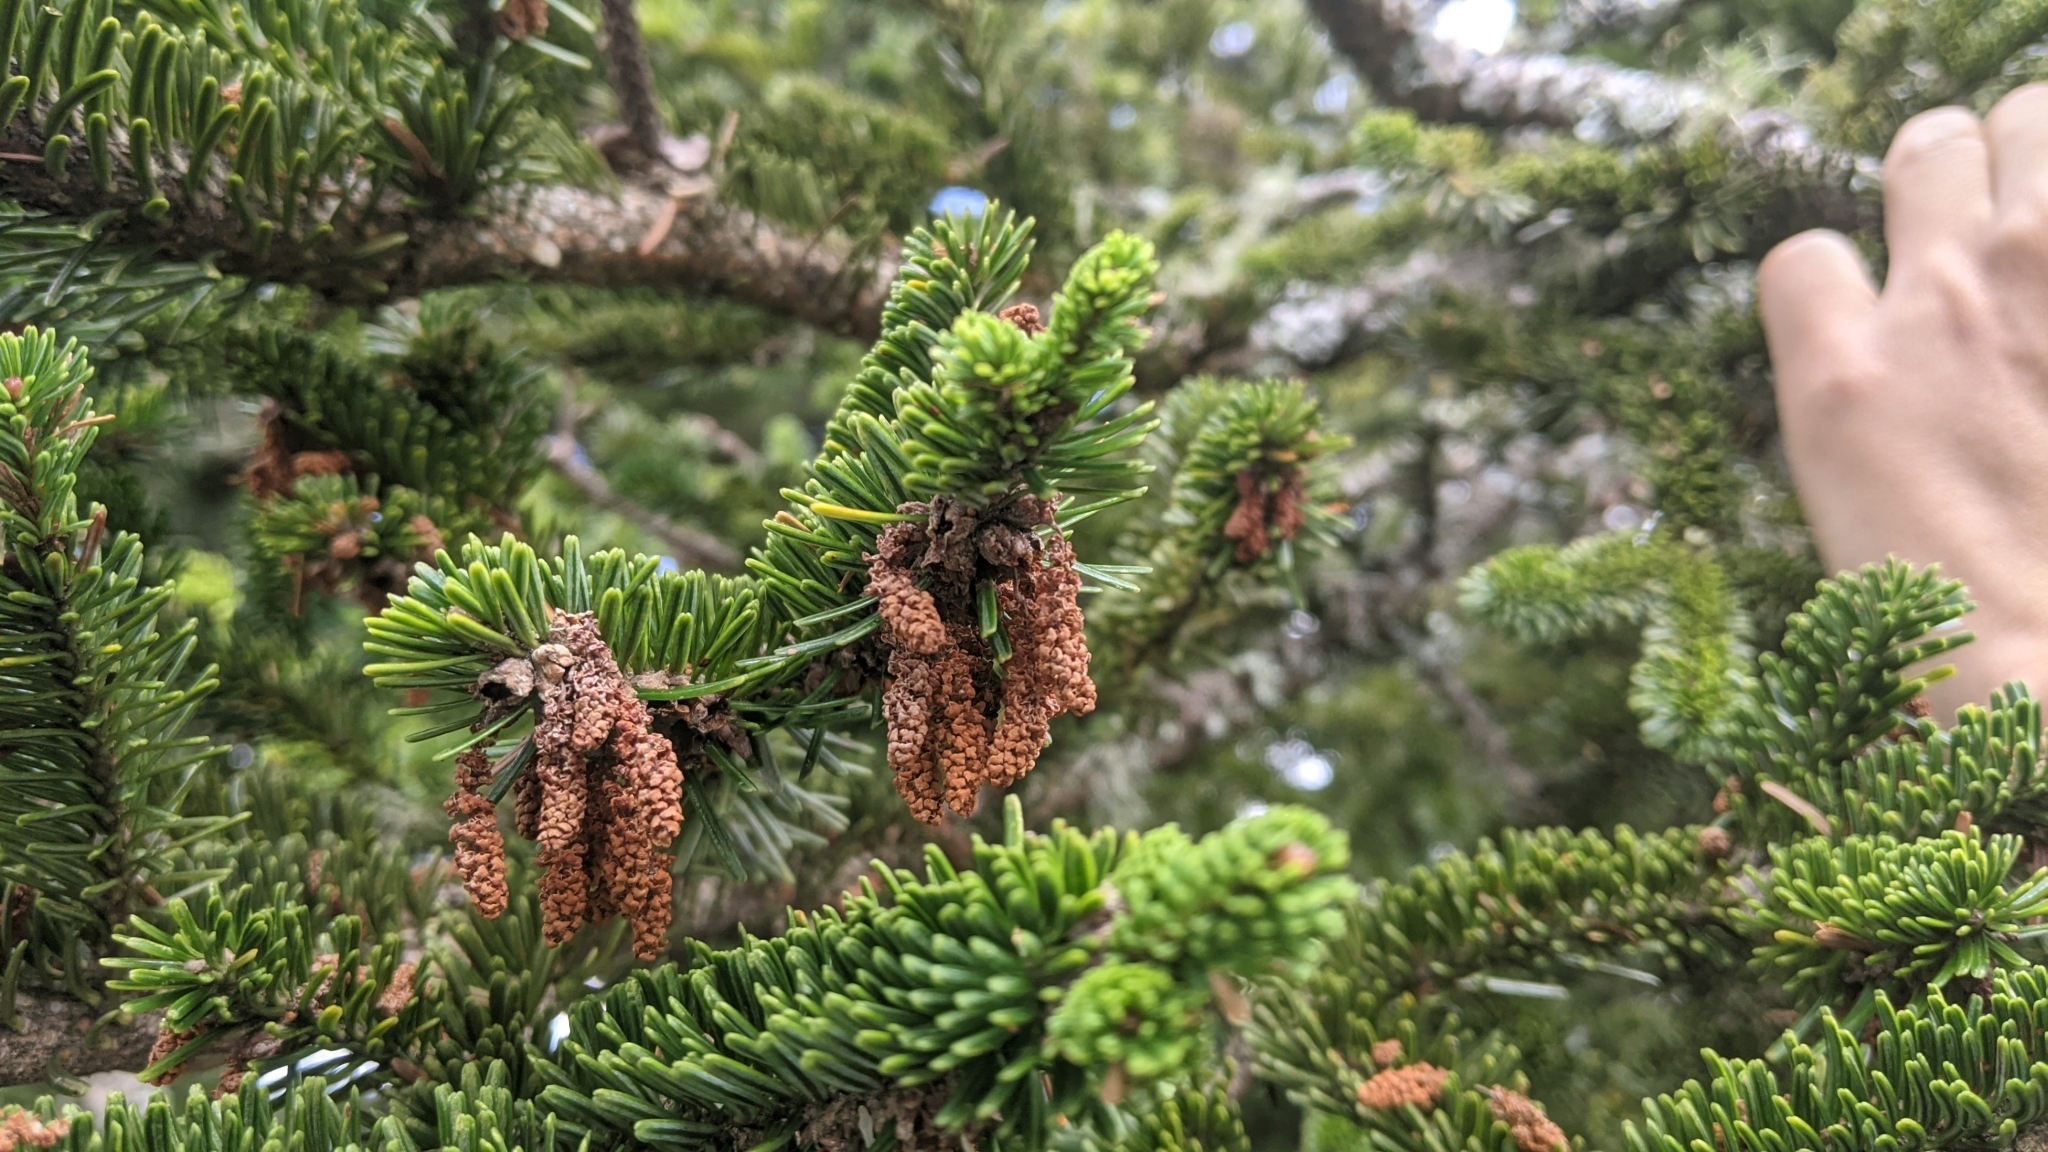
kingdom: Plantae
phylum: Tracheophyta
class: Pinopsida
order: Pinales
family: Pinaceae
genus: Abies
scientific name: Abies kawakamii
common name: Taiwan fir
